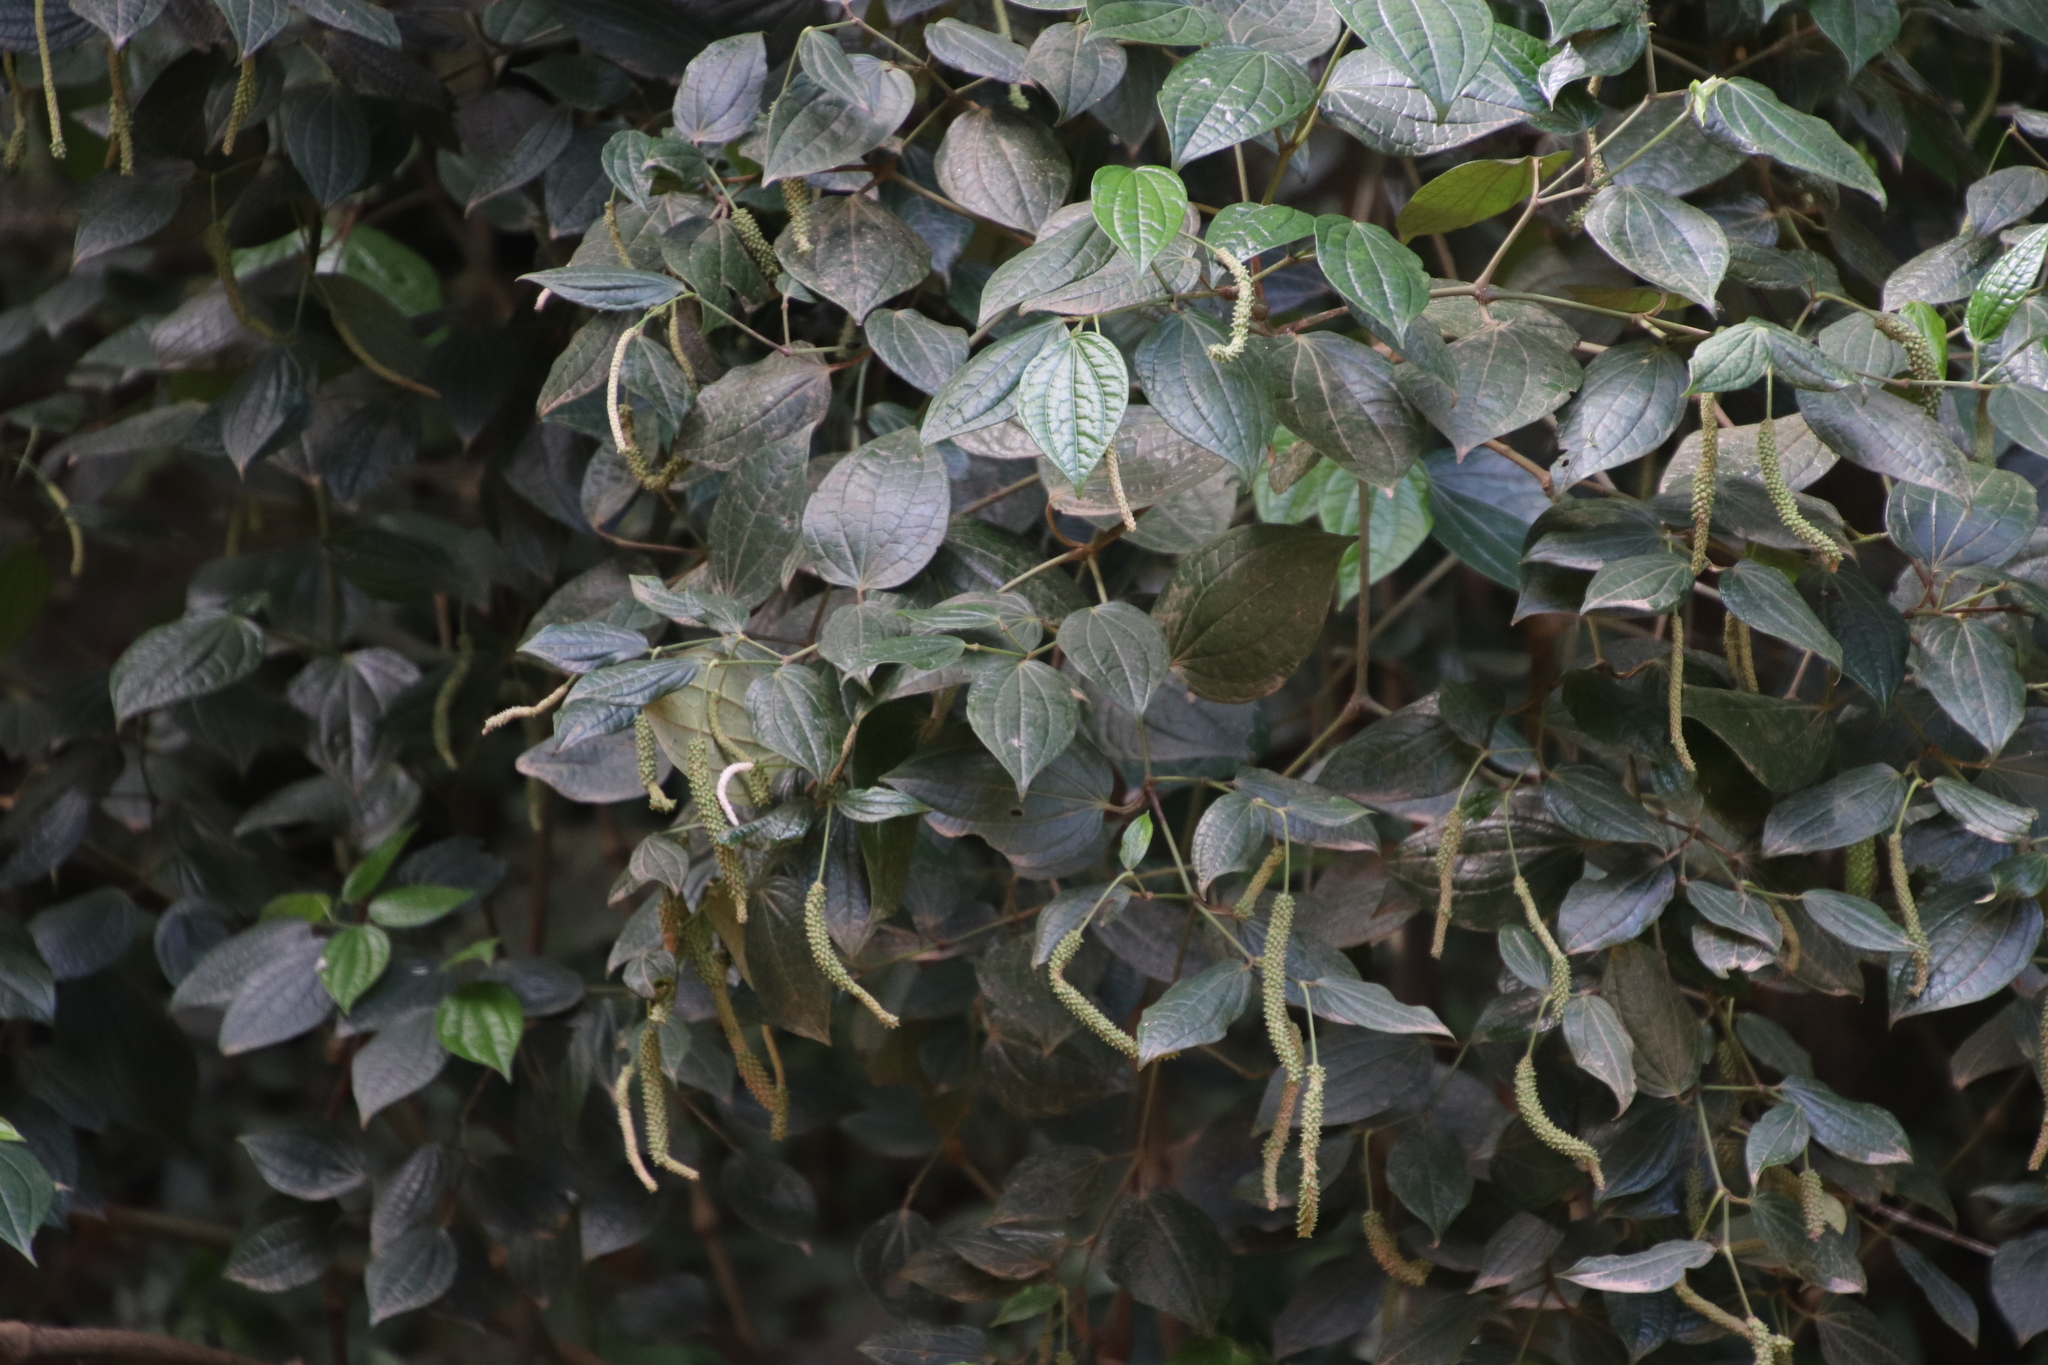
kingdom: Plantae
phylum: Tracheophyta
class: Magnoliopsida
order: Piperales
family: Piperaceae
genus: Piper
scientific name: Piper capense
